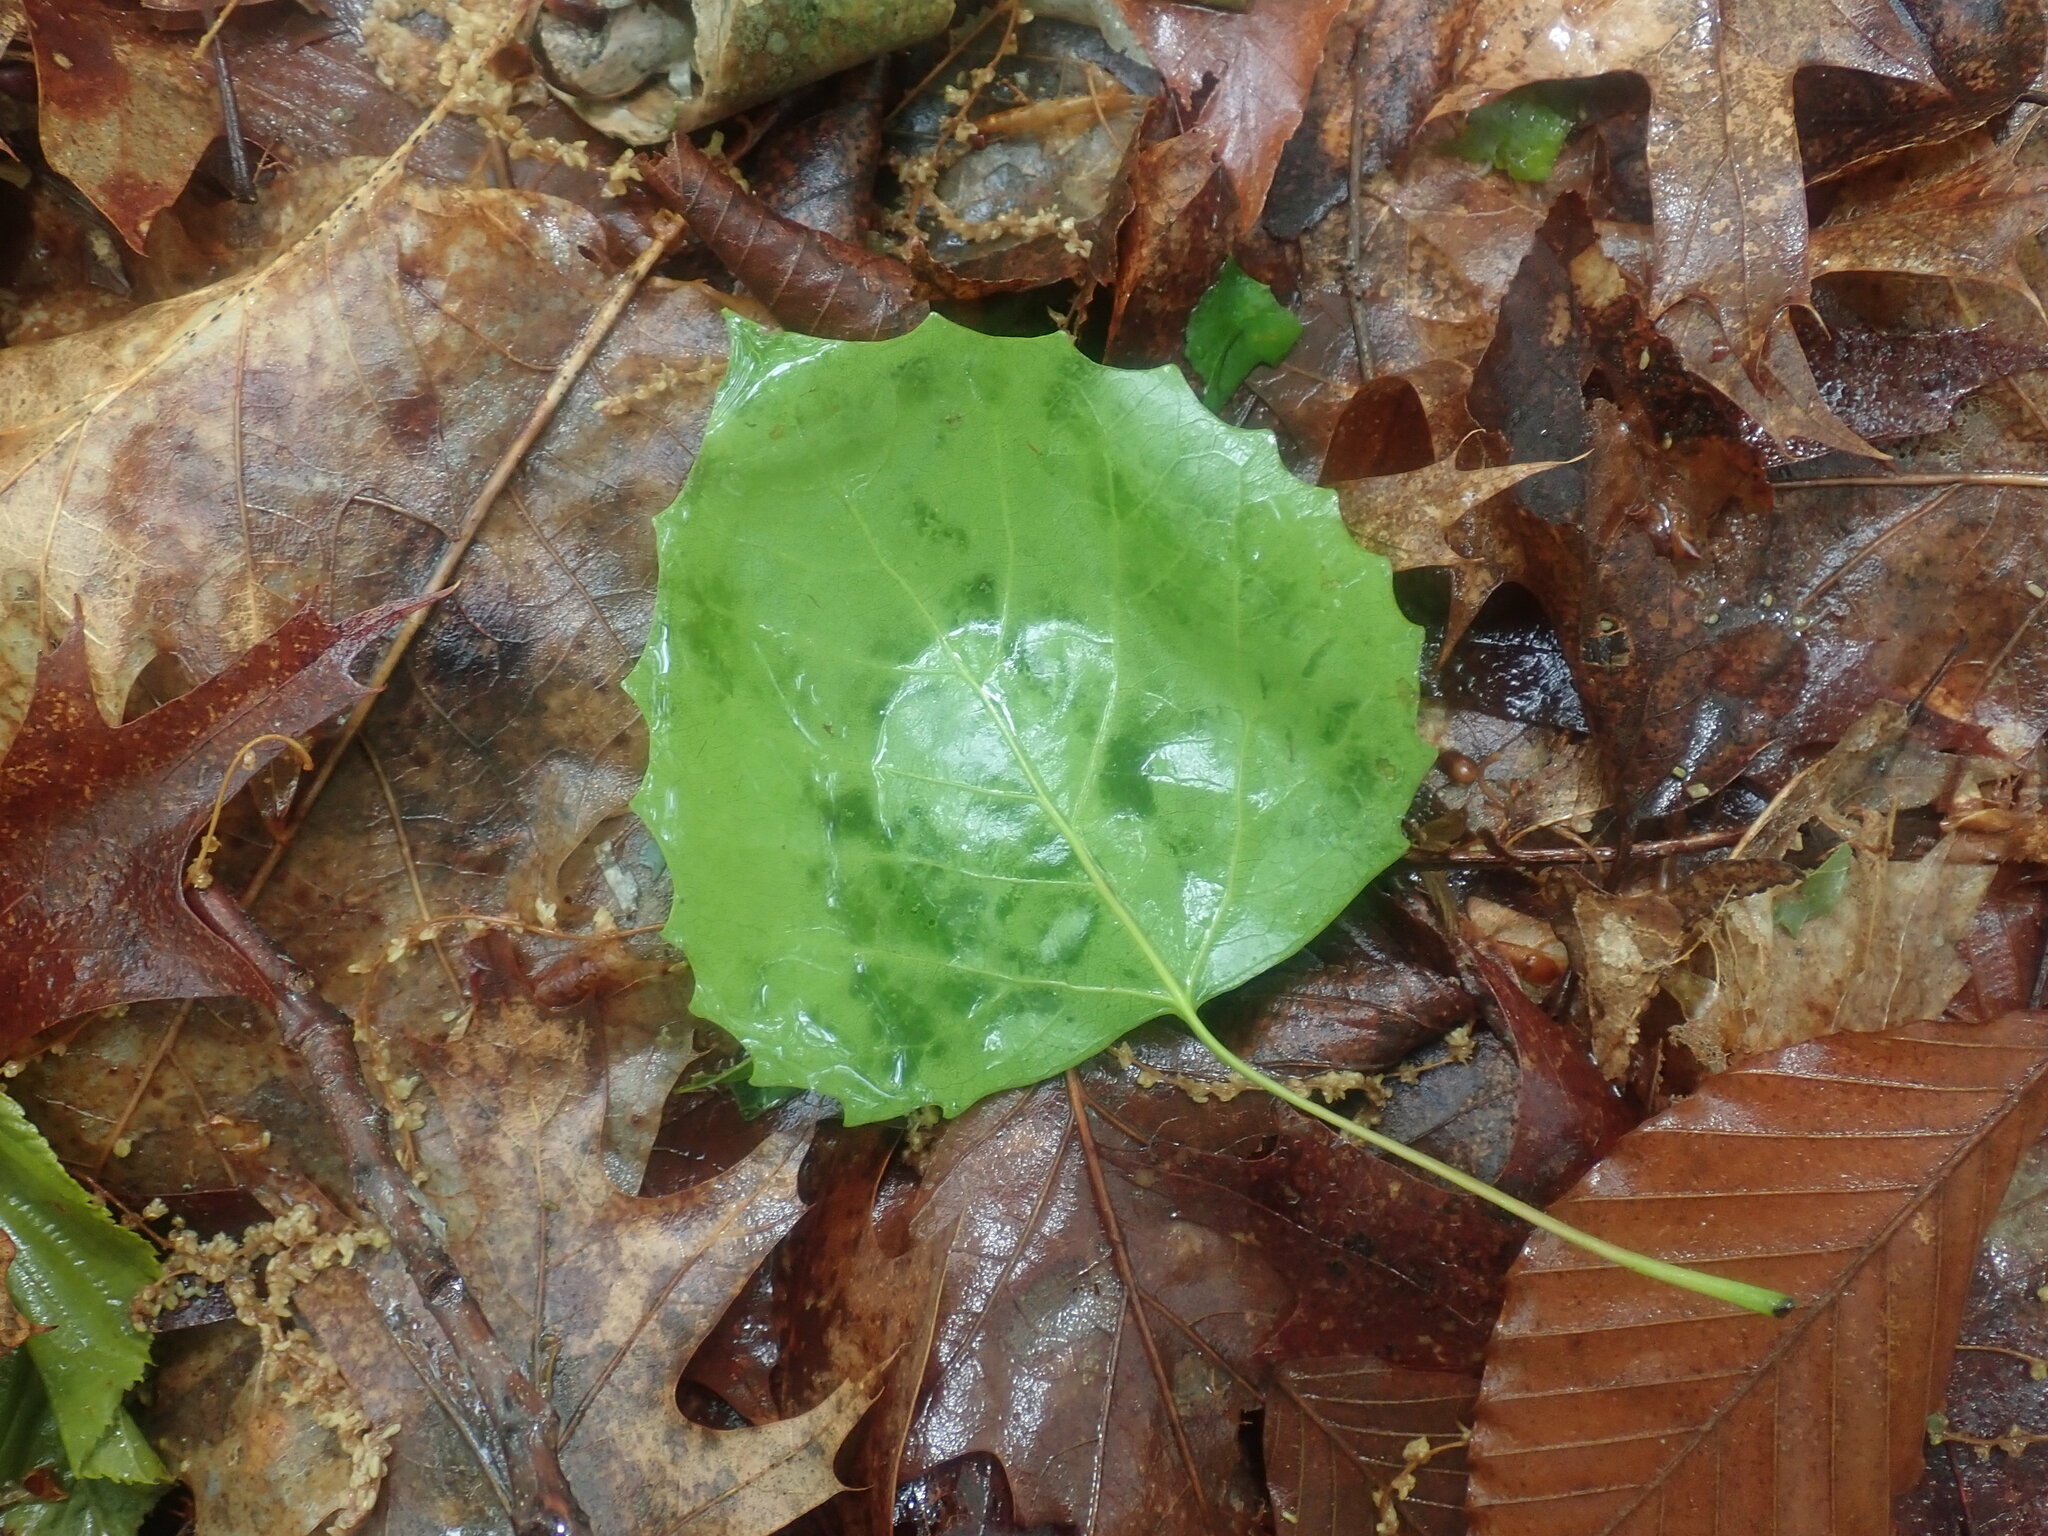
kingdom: Plantae
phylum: Tracheophyta
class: Magnoliopsida
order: Malpighiales
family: Salicaceae
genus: Populus
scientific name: Populus grandidentata
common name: Bigtooth aspen
